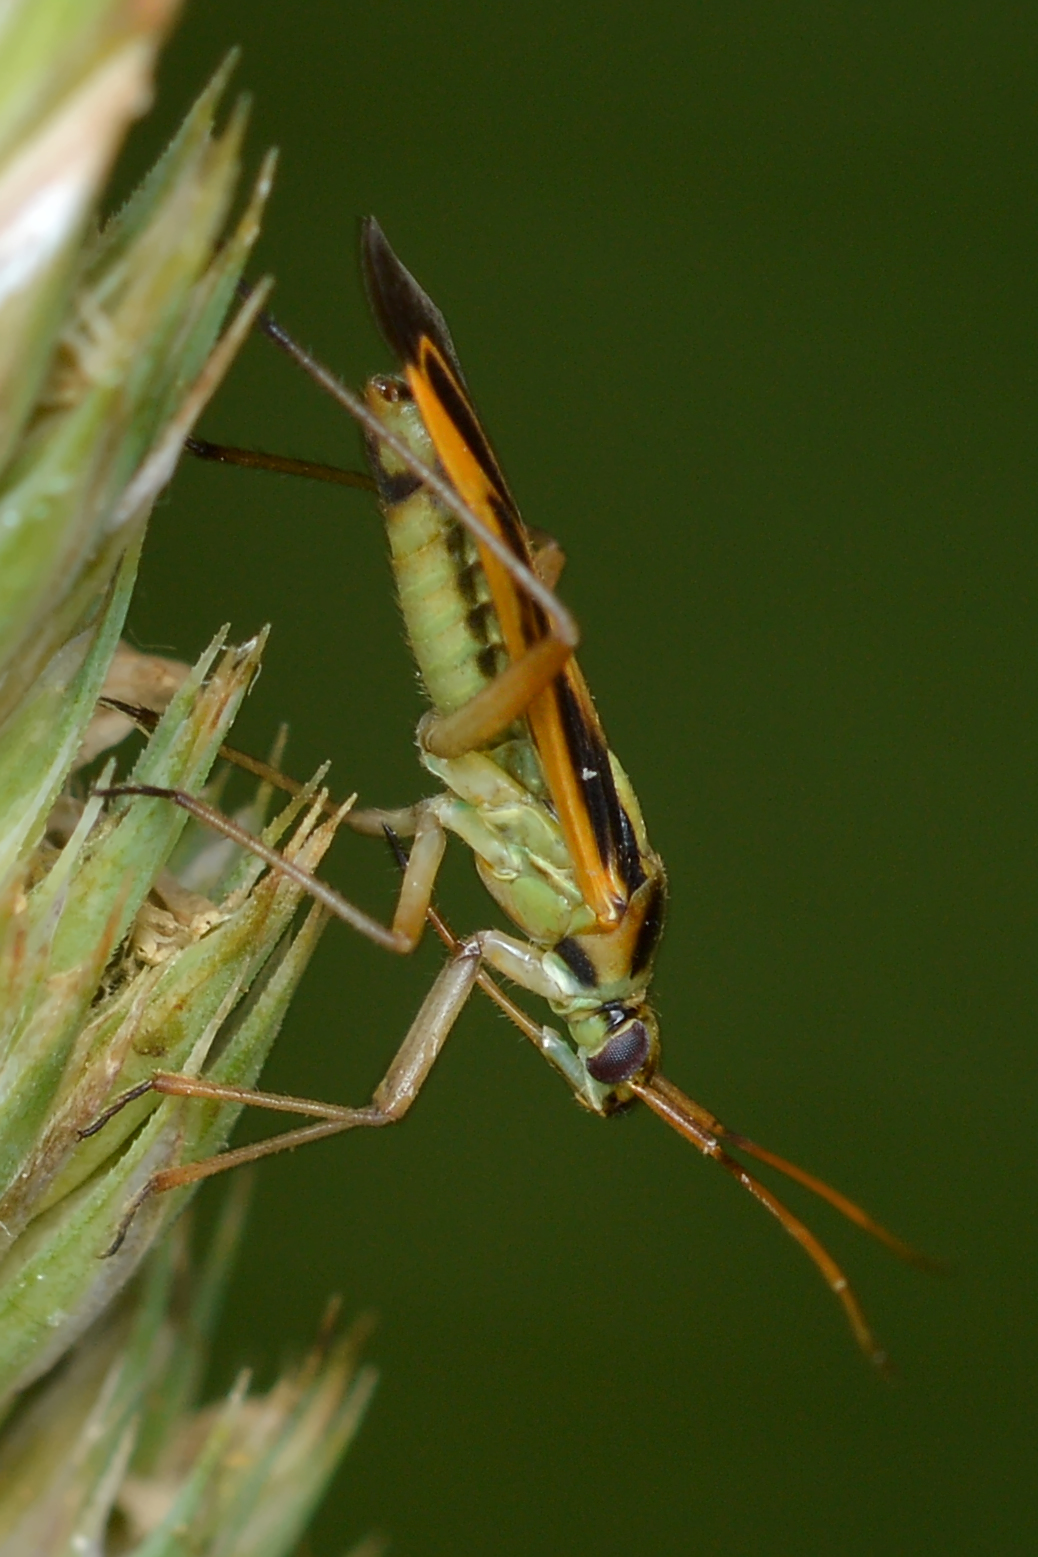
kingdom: Animalia
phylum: Arthropoda
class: Insecta
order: Hemiptera
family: Miridae
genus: Stenotus
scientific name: Stenotus binotatus
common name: Plant bug
